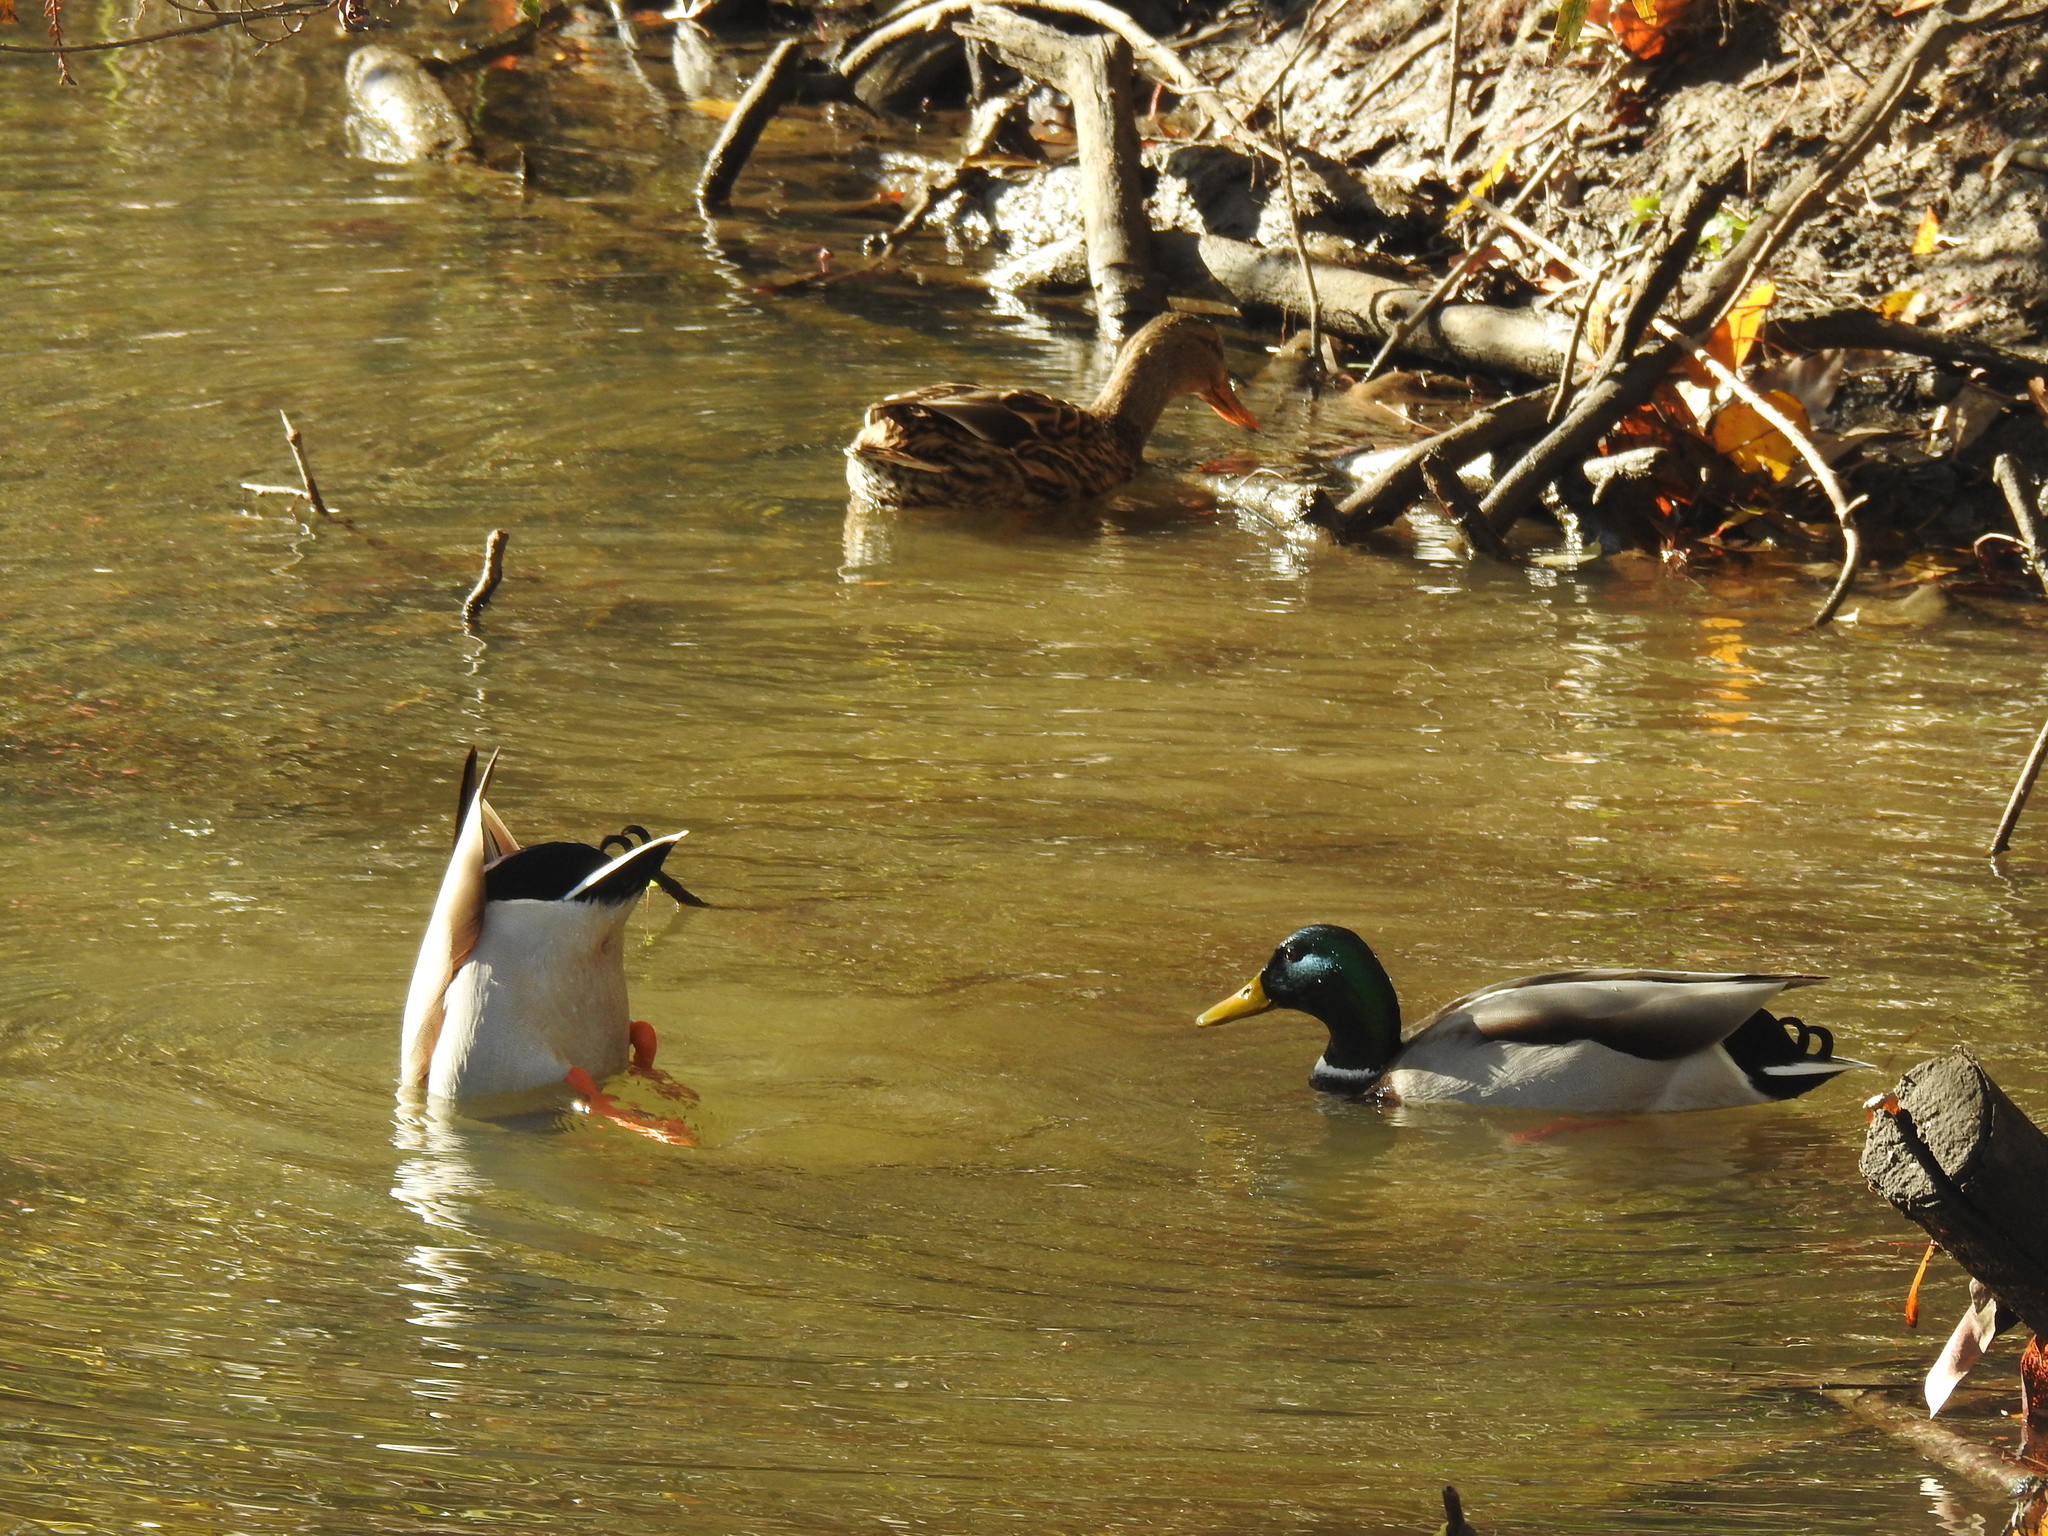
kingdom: Animalia
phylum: Chordata
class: Aves
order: Anseriformes
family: Anatidae
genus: Anas
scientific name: Anas platyrhynchos
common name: Mallard
